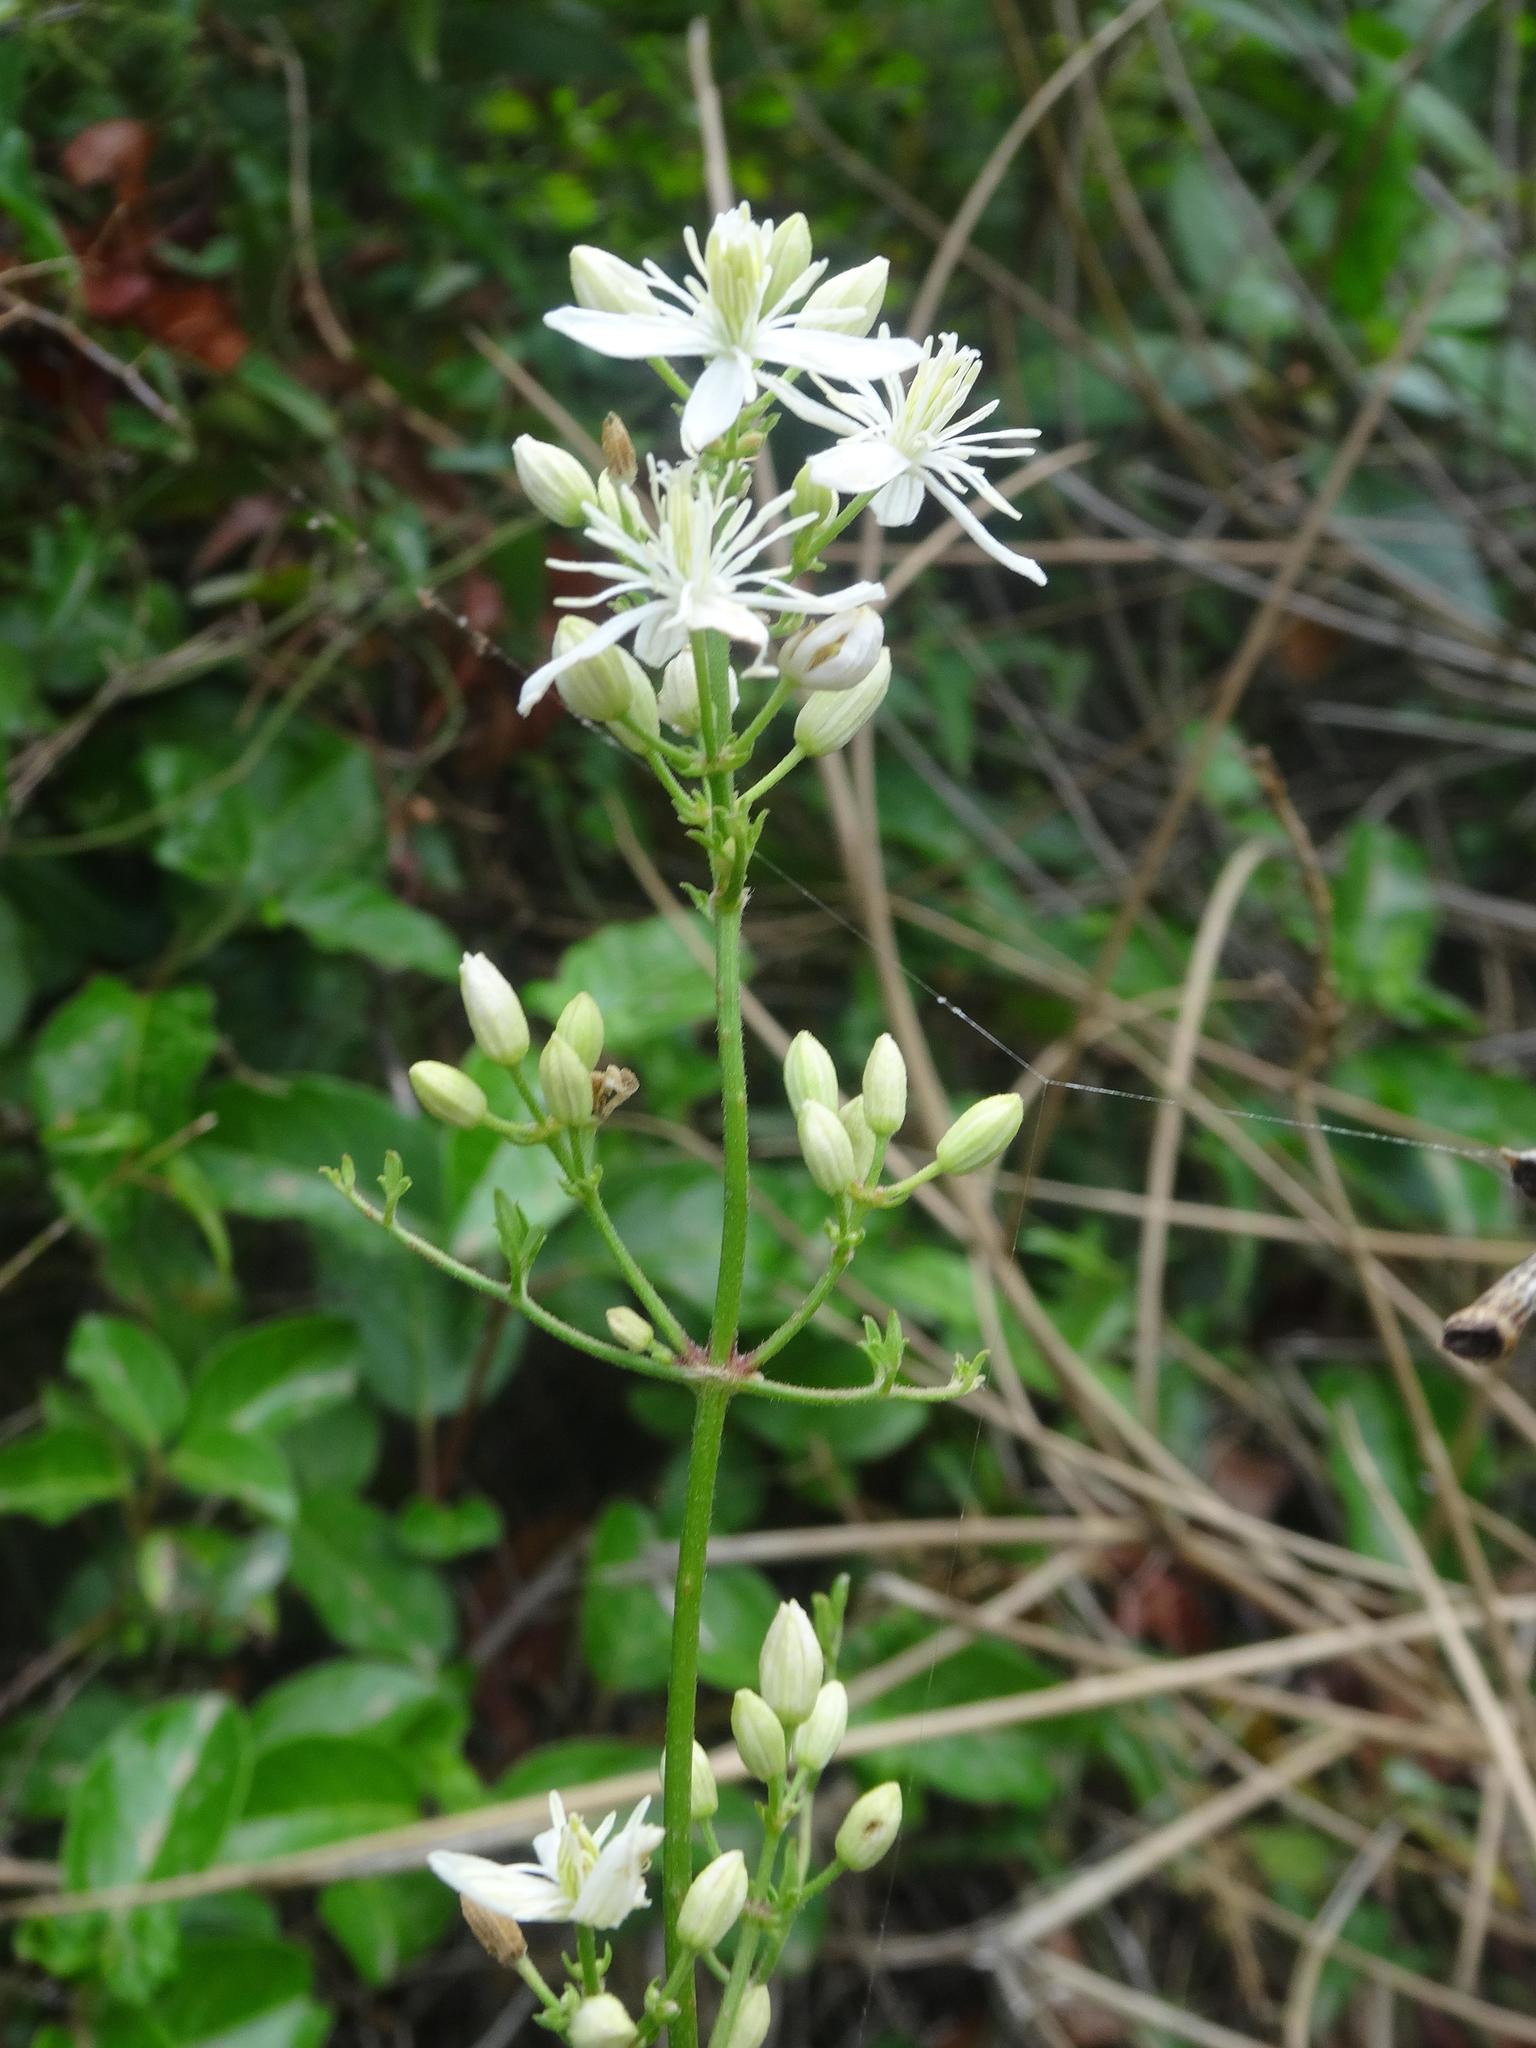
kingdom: Plantae
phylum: Tracheophyta
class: Magnoliopsida
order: Ranunculales
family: Ranunculaceae
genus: Clematis
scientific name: Clematis flammula
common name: Virgin's-bower
